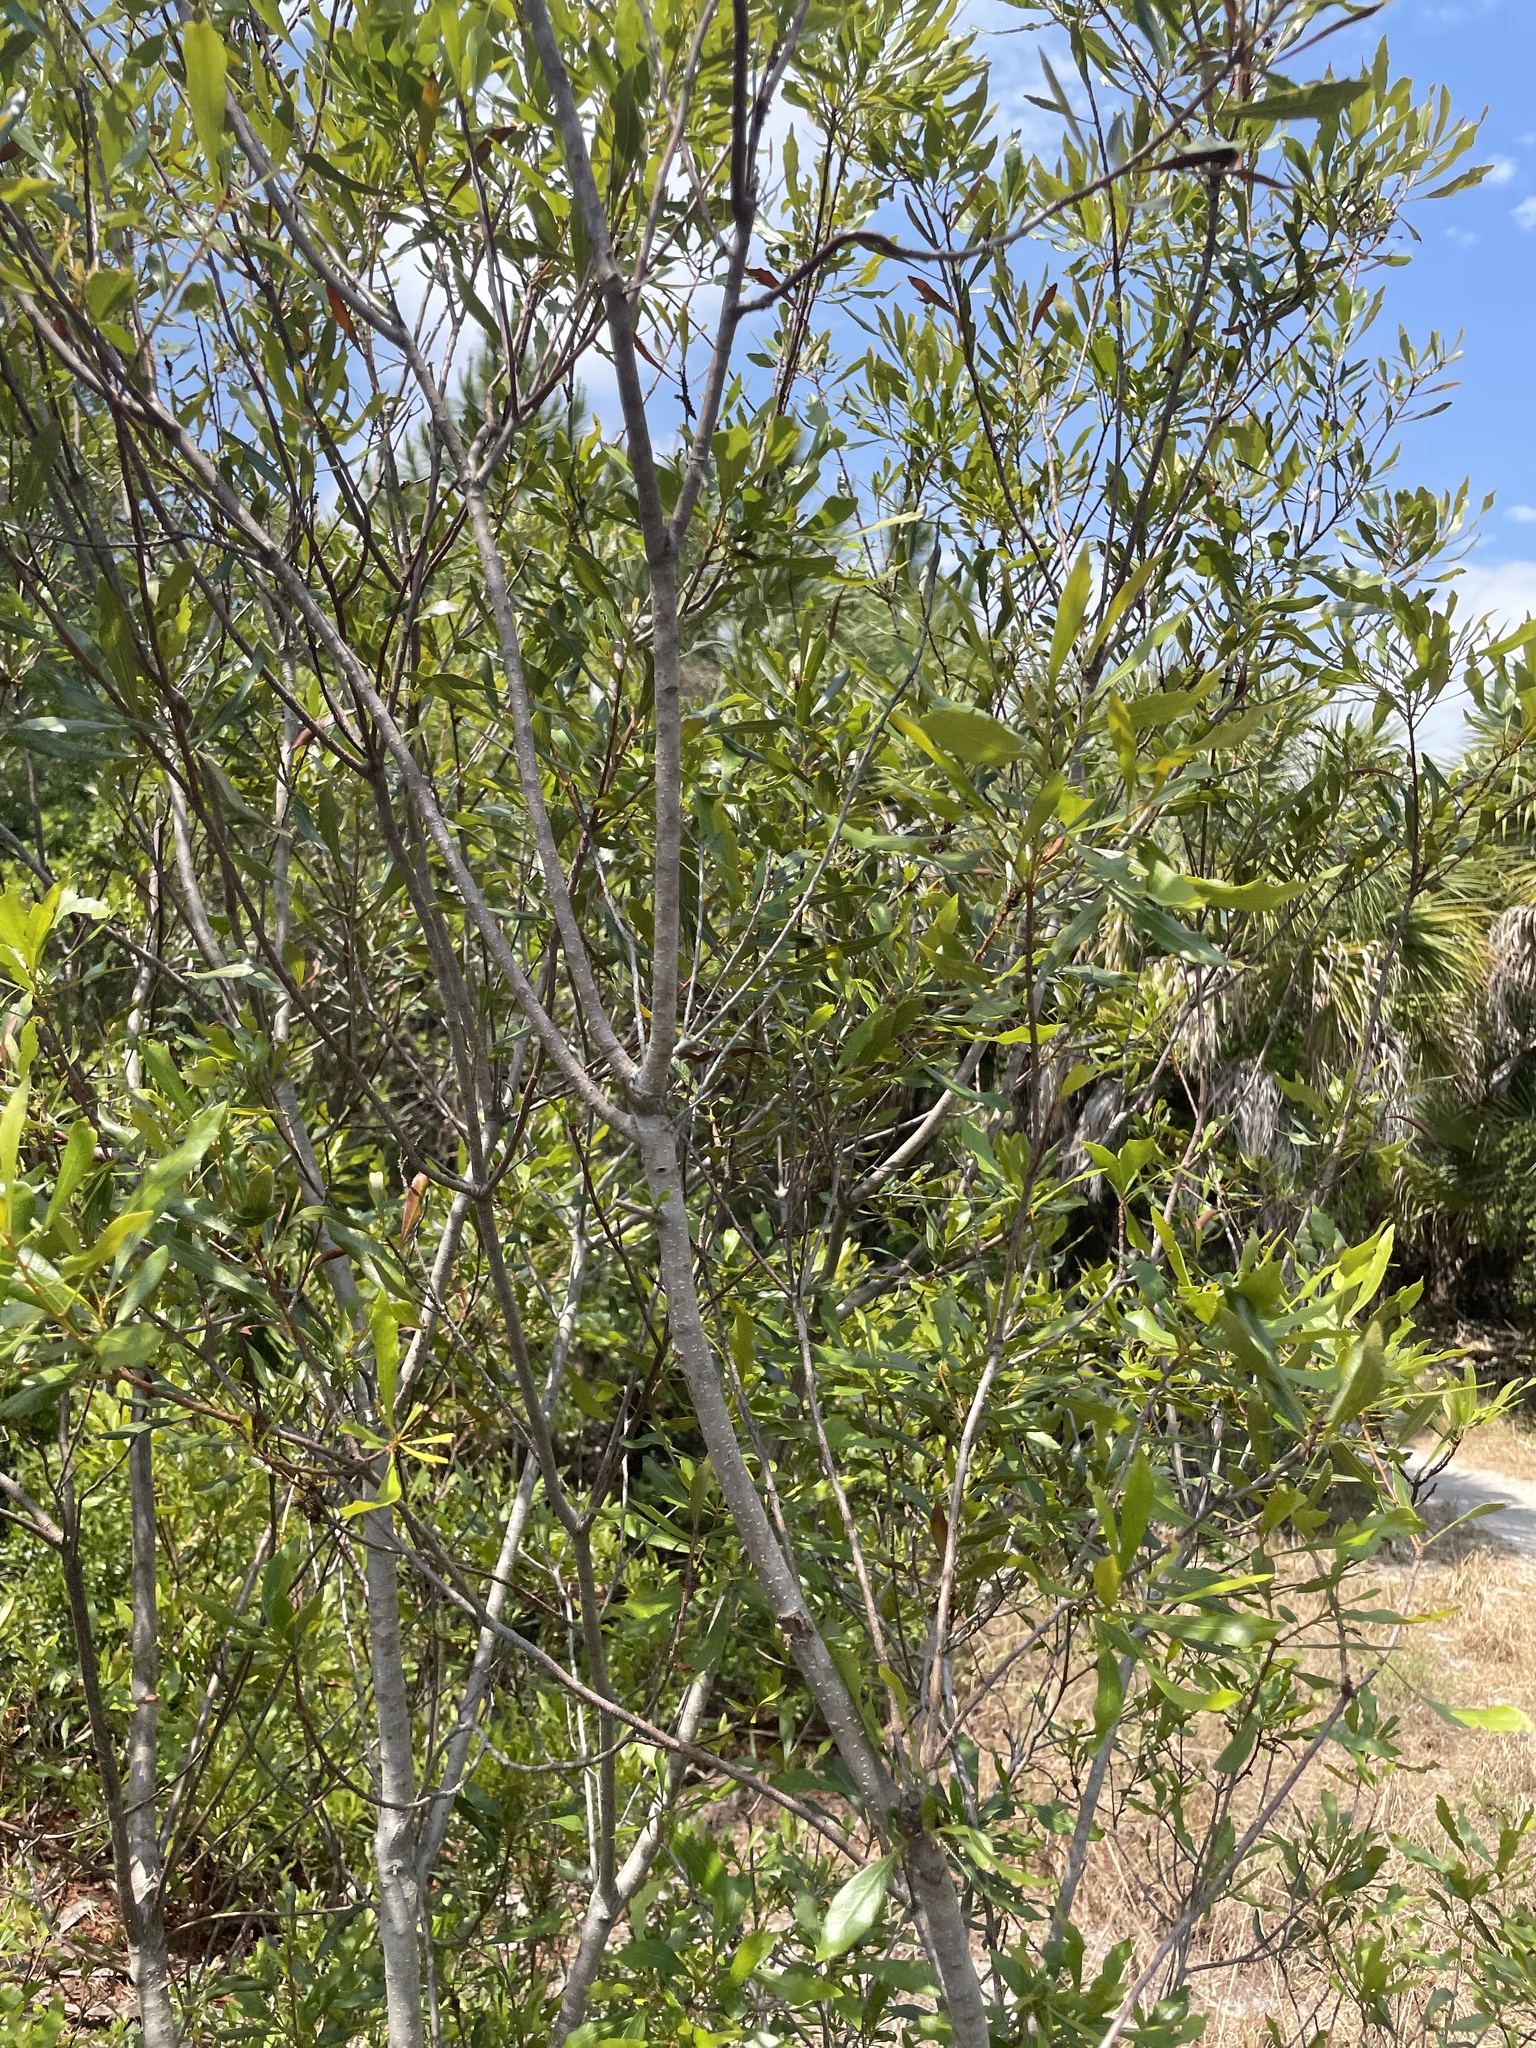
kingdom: Plantae
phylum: Tracheophyta
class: Magnoliopsida
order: Fagales
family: Myricaceae
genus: Morella
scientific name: Morella cerifera
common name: Wax myrtle
